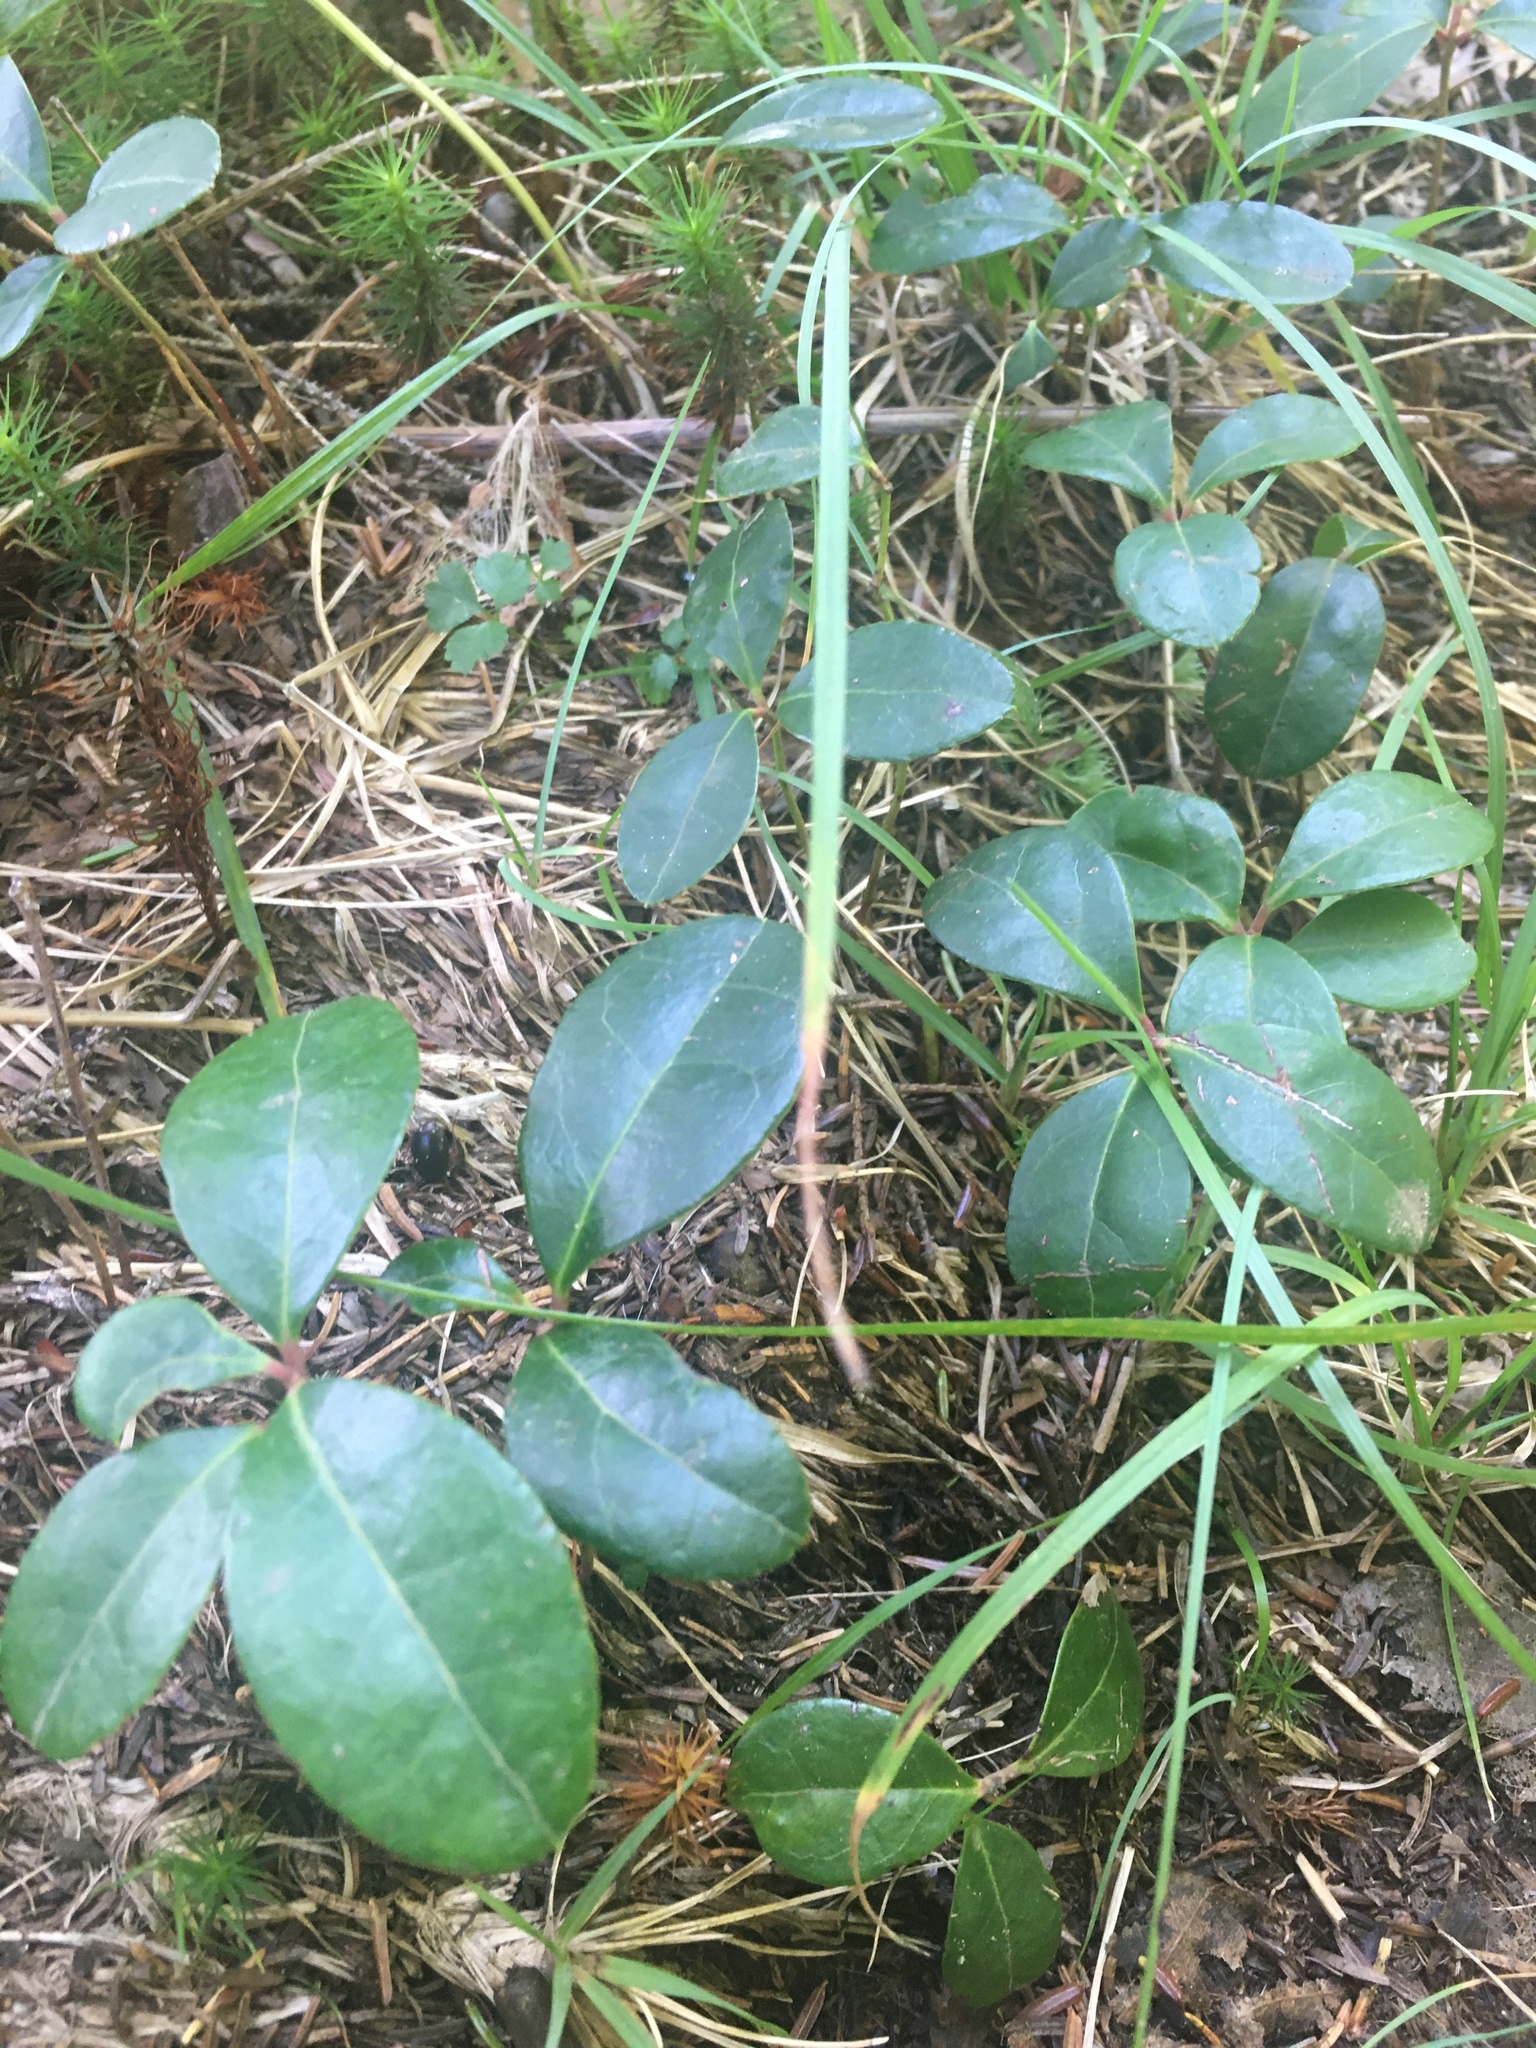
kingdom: Plantae
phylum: Tracheophyta
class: Magnoliopsida
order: Ericales
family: Ericaceae
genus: Gaultheria
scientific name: Gaultheria procumbens
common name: Checkerberry
